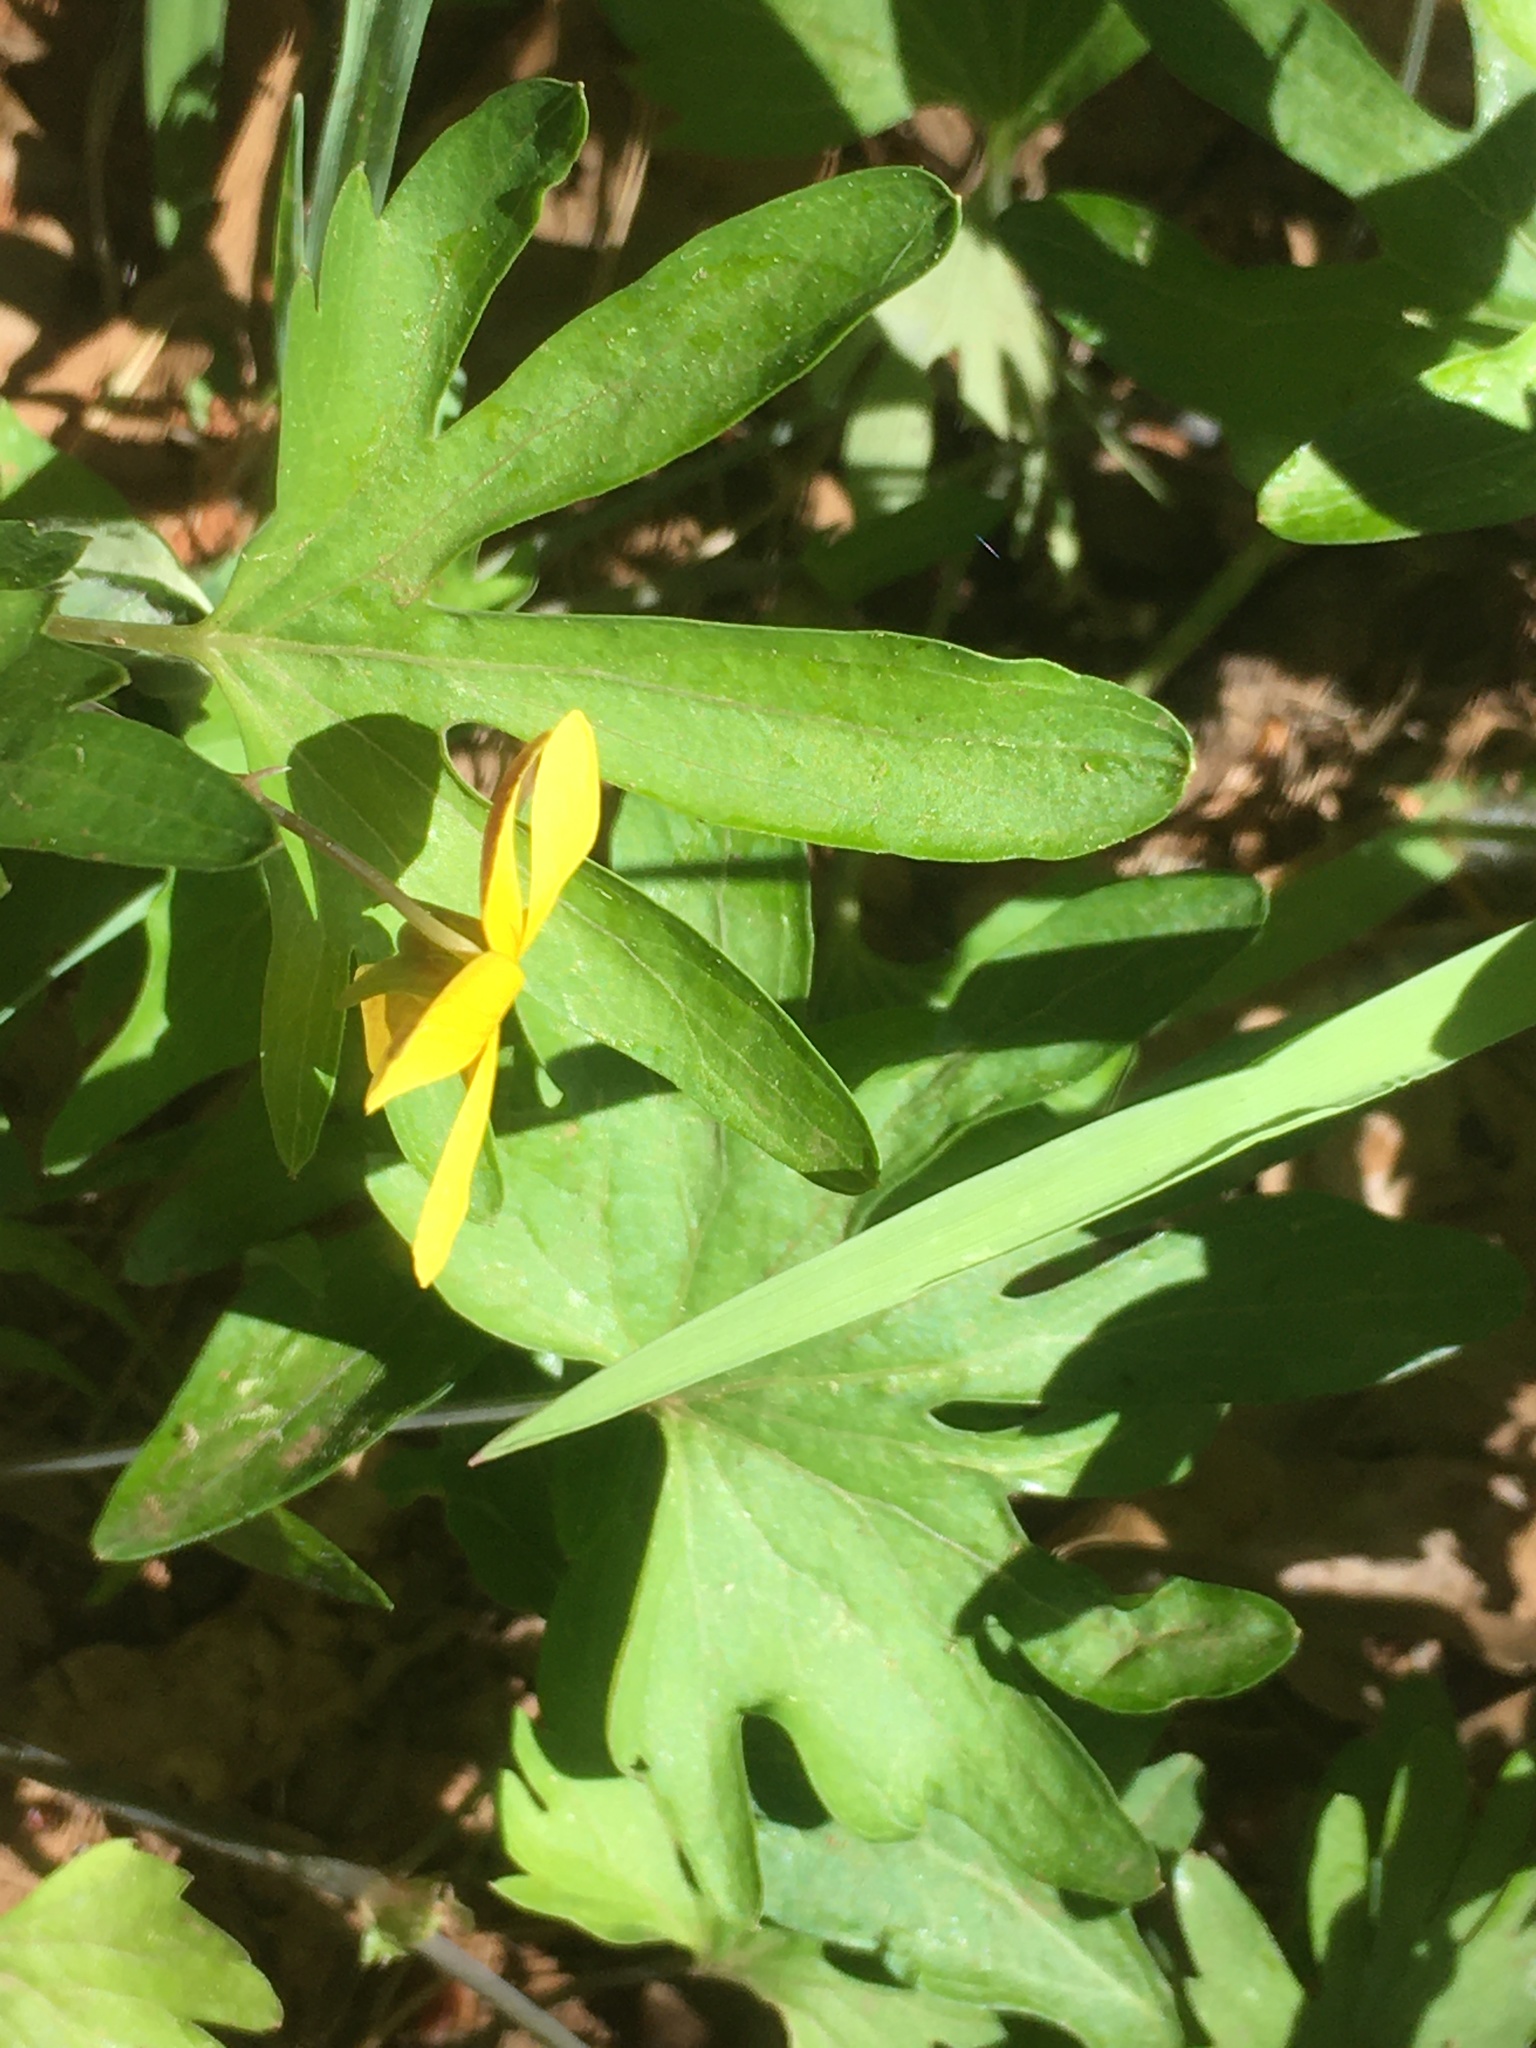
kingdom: Plantae
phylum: Tracheophyta
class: Magnoliopsida
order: Malpighiales
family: Violaceae
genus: Viola
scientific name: Viola lobata
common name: Pine violet
